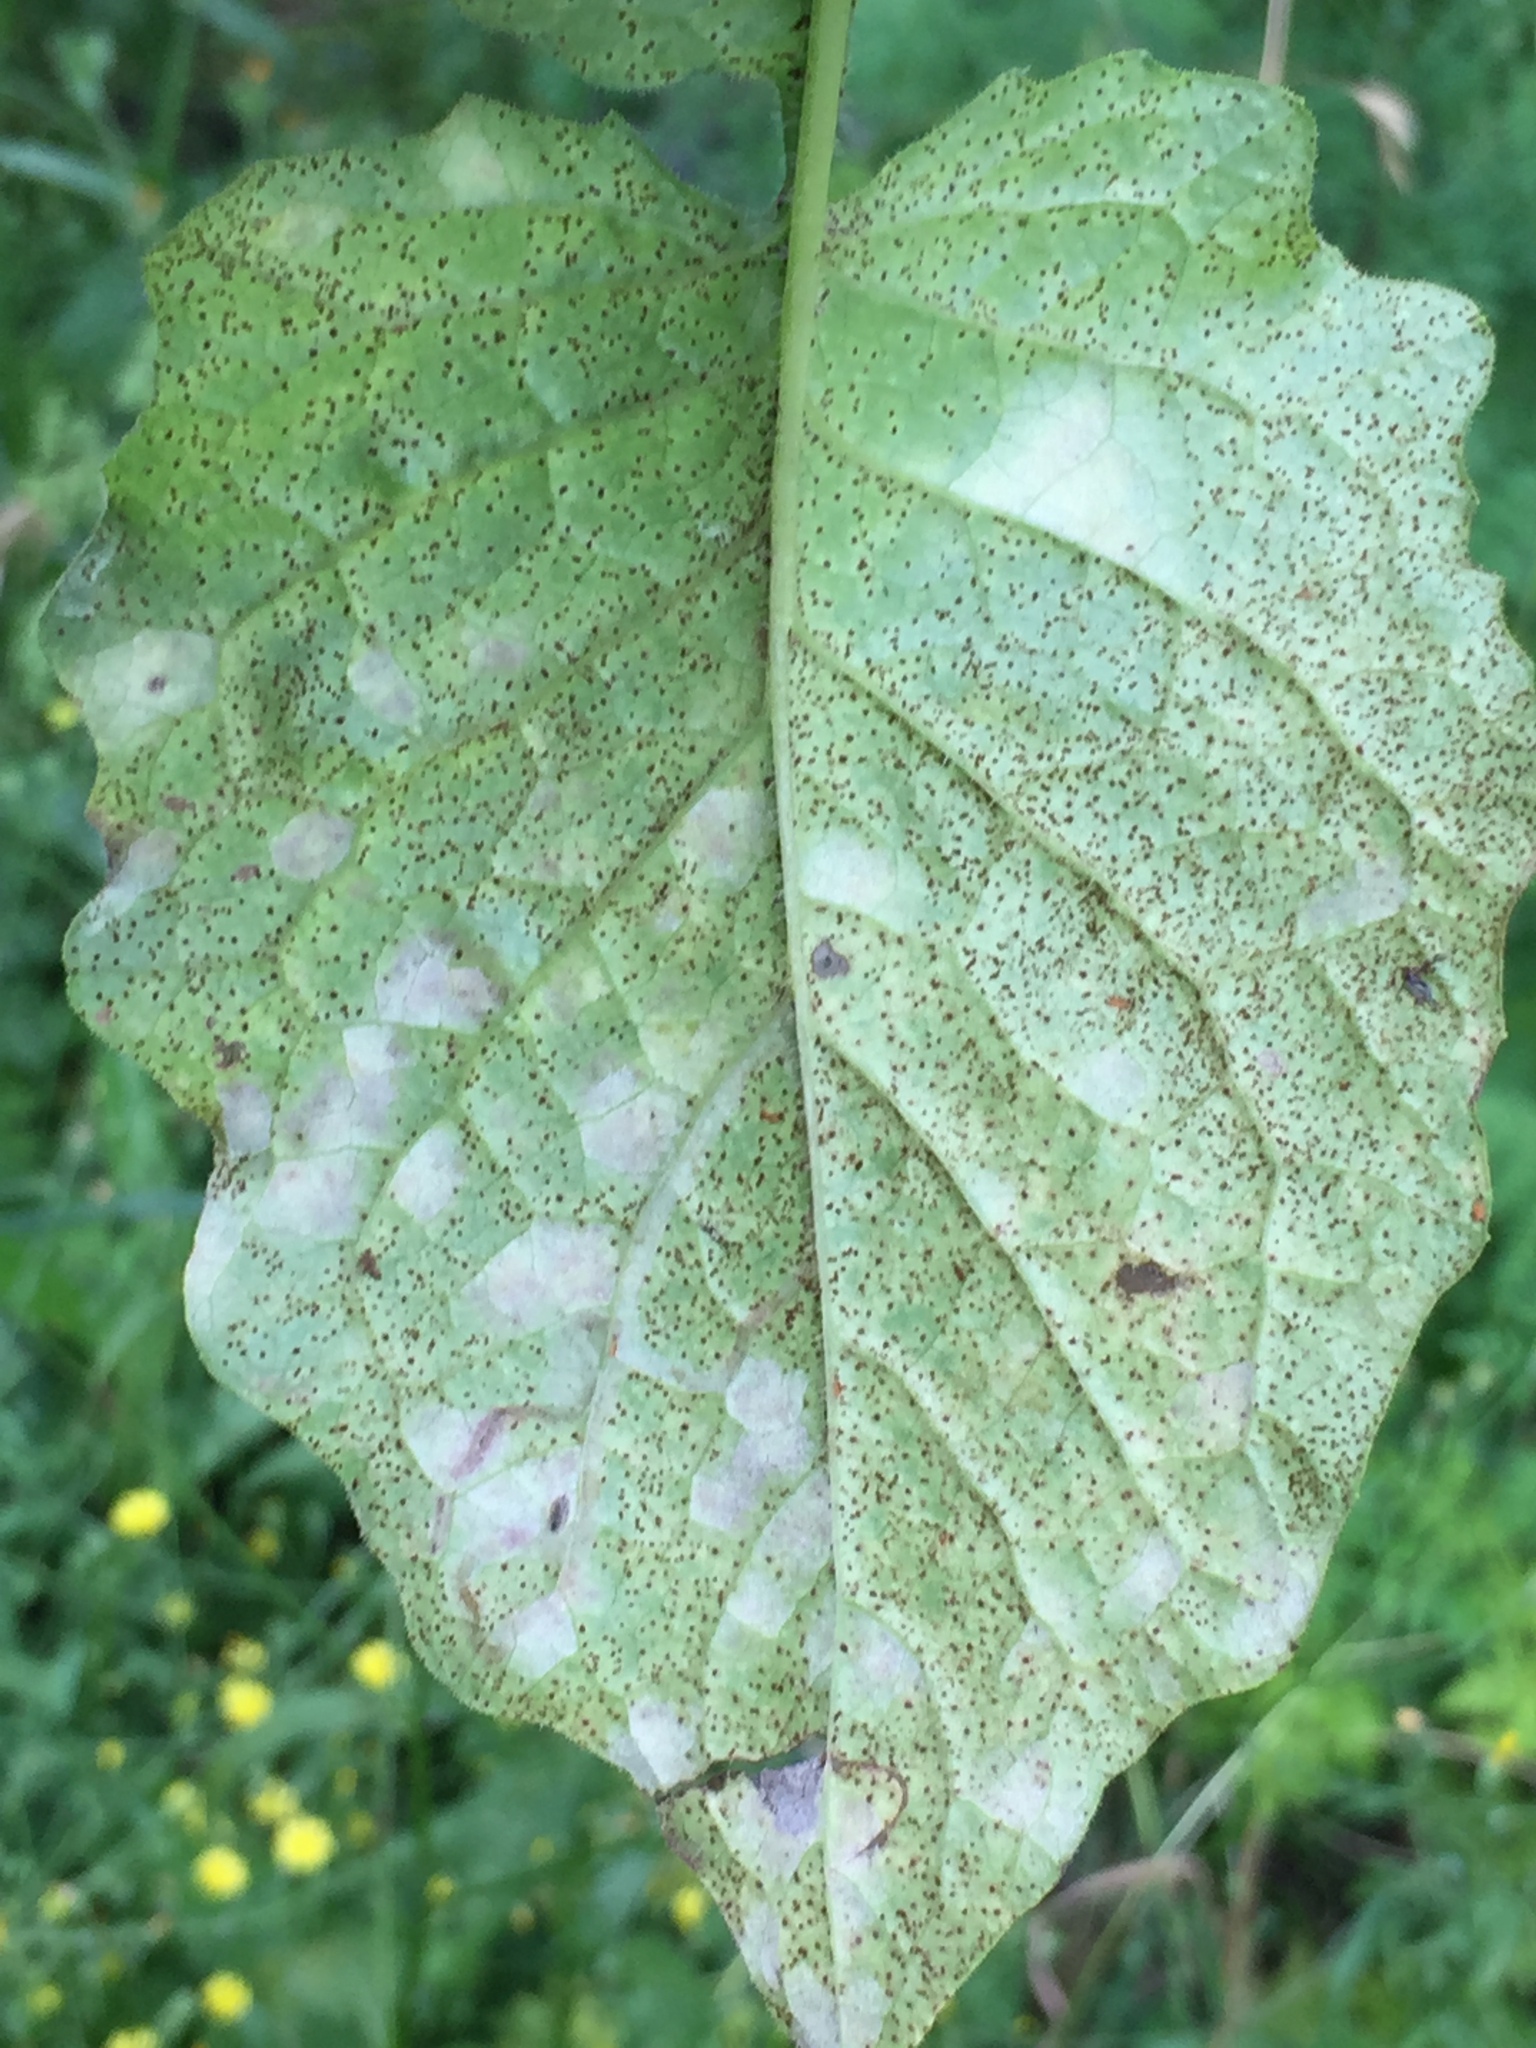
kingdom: Fungi
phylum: Basidiomycota
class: Pucciniomycetes
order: Pucciniales
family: Pucciniaceae
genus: Puccinia
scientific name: Puccinia lapsanae
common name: Nipplewort rust
